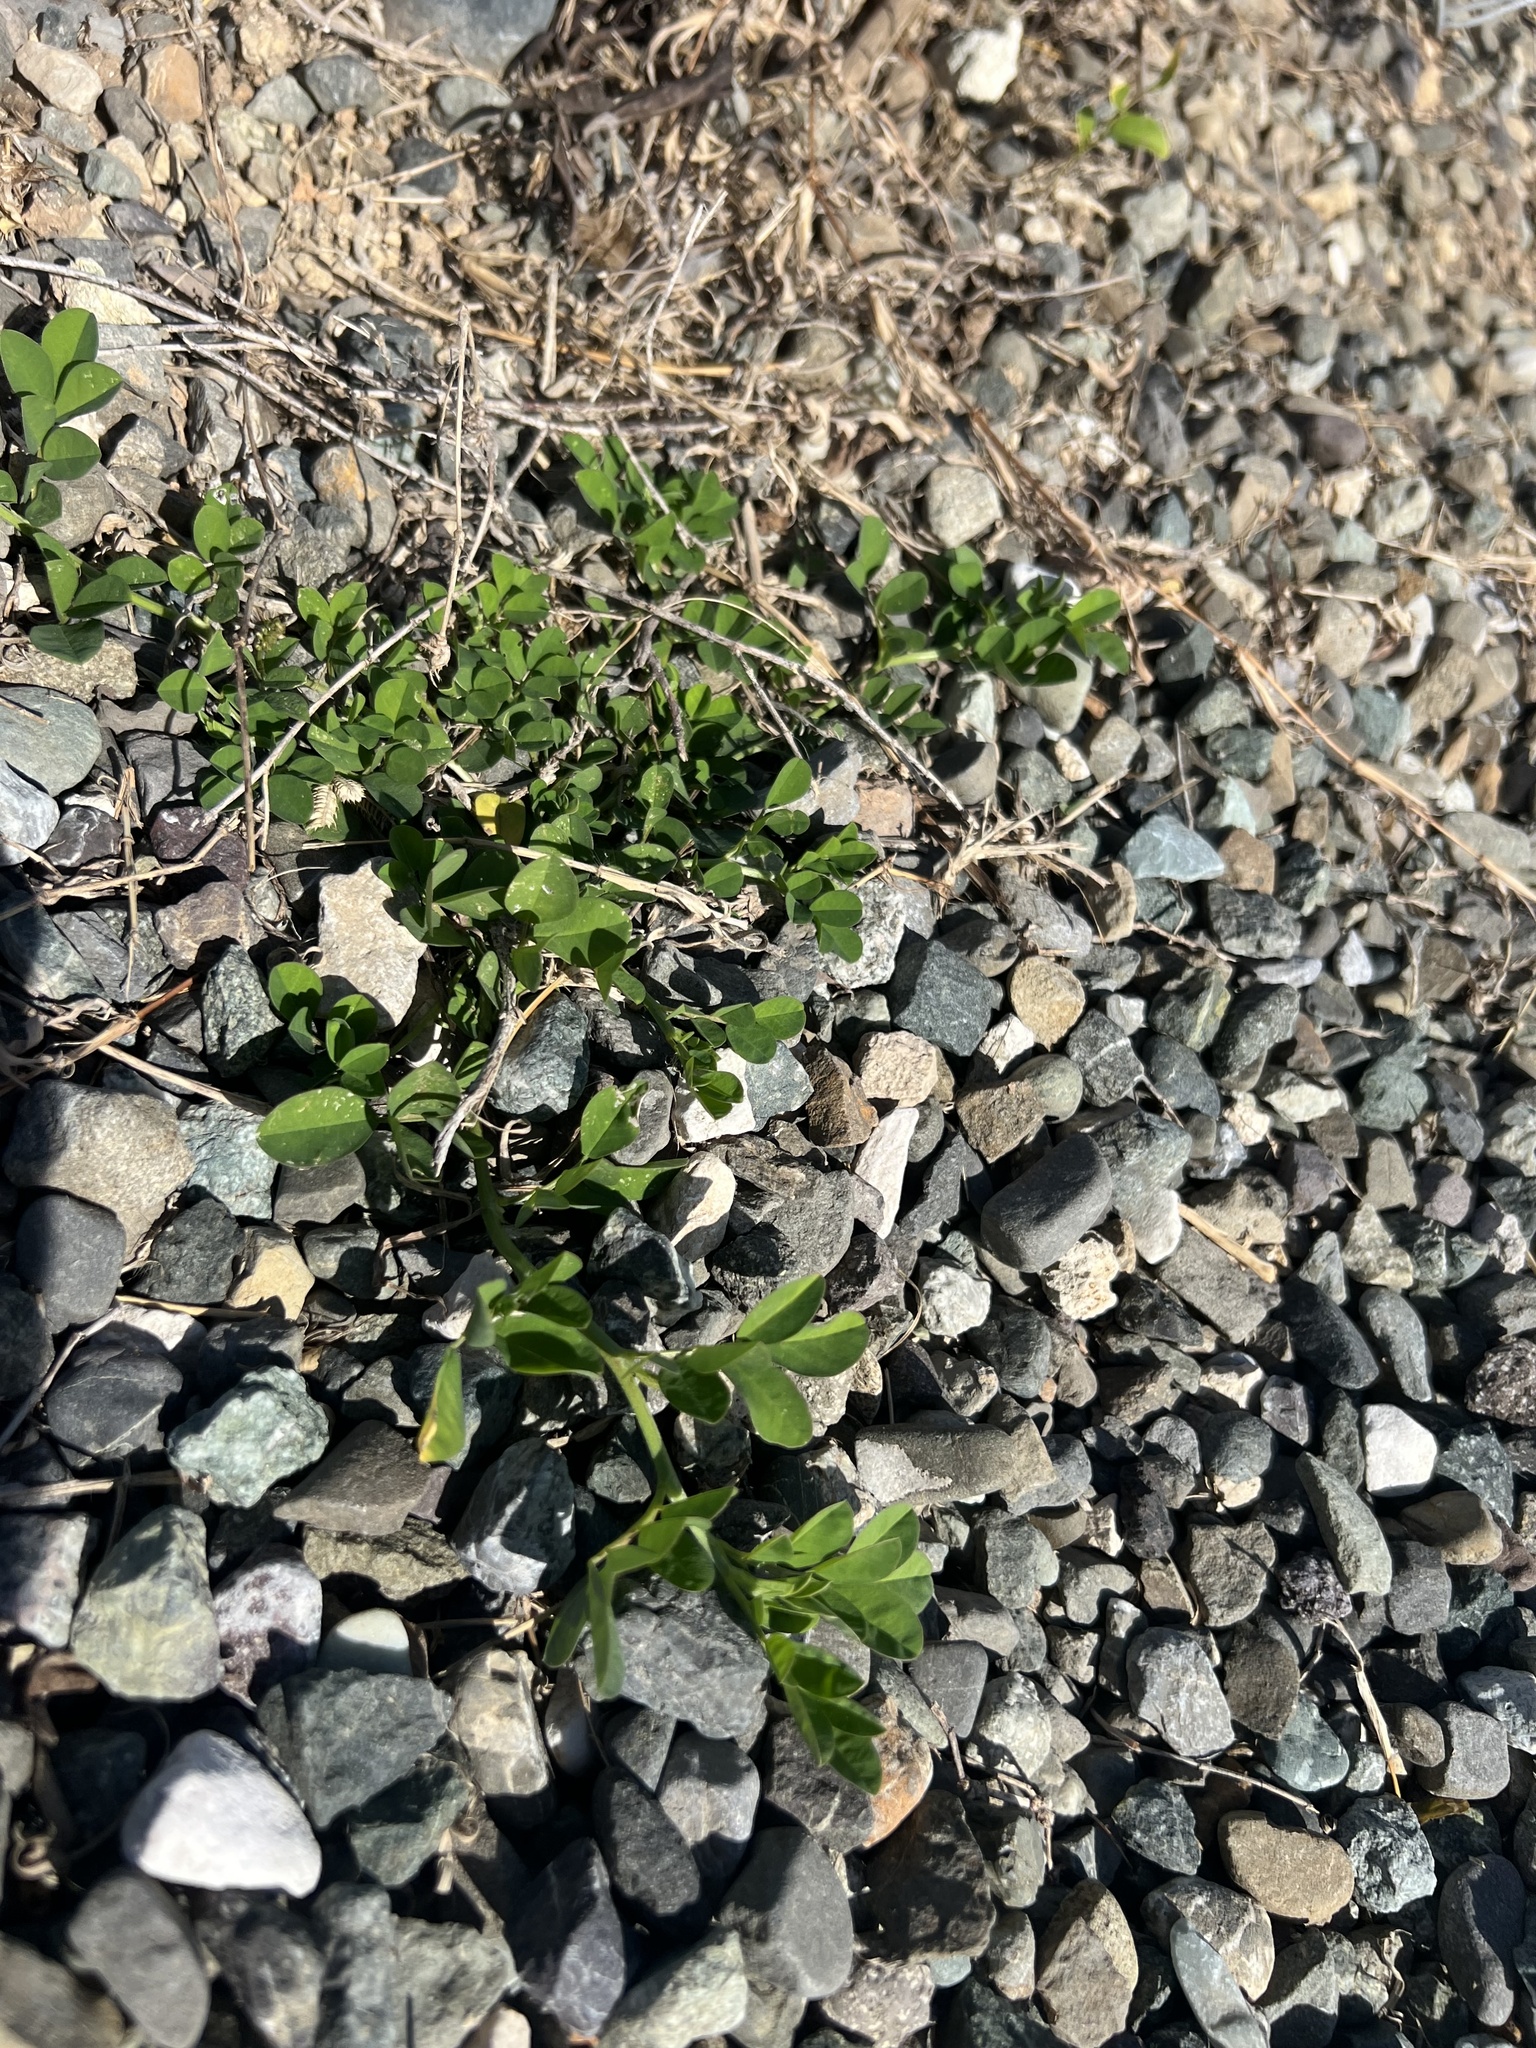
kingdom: Plantae
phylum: Tracheophyta
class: Magnoliopsida
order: Fabales
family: Fabaceae
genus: Indigofera
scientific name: Indigofera spicata
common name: Creeping indigo
